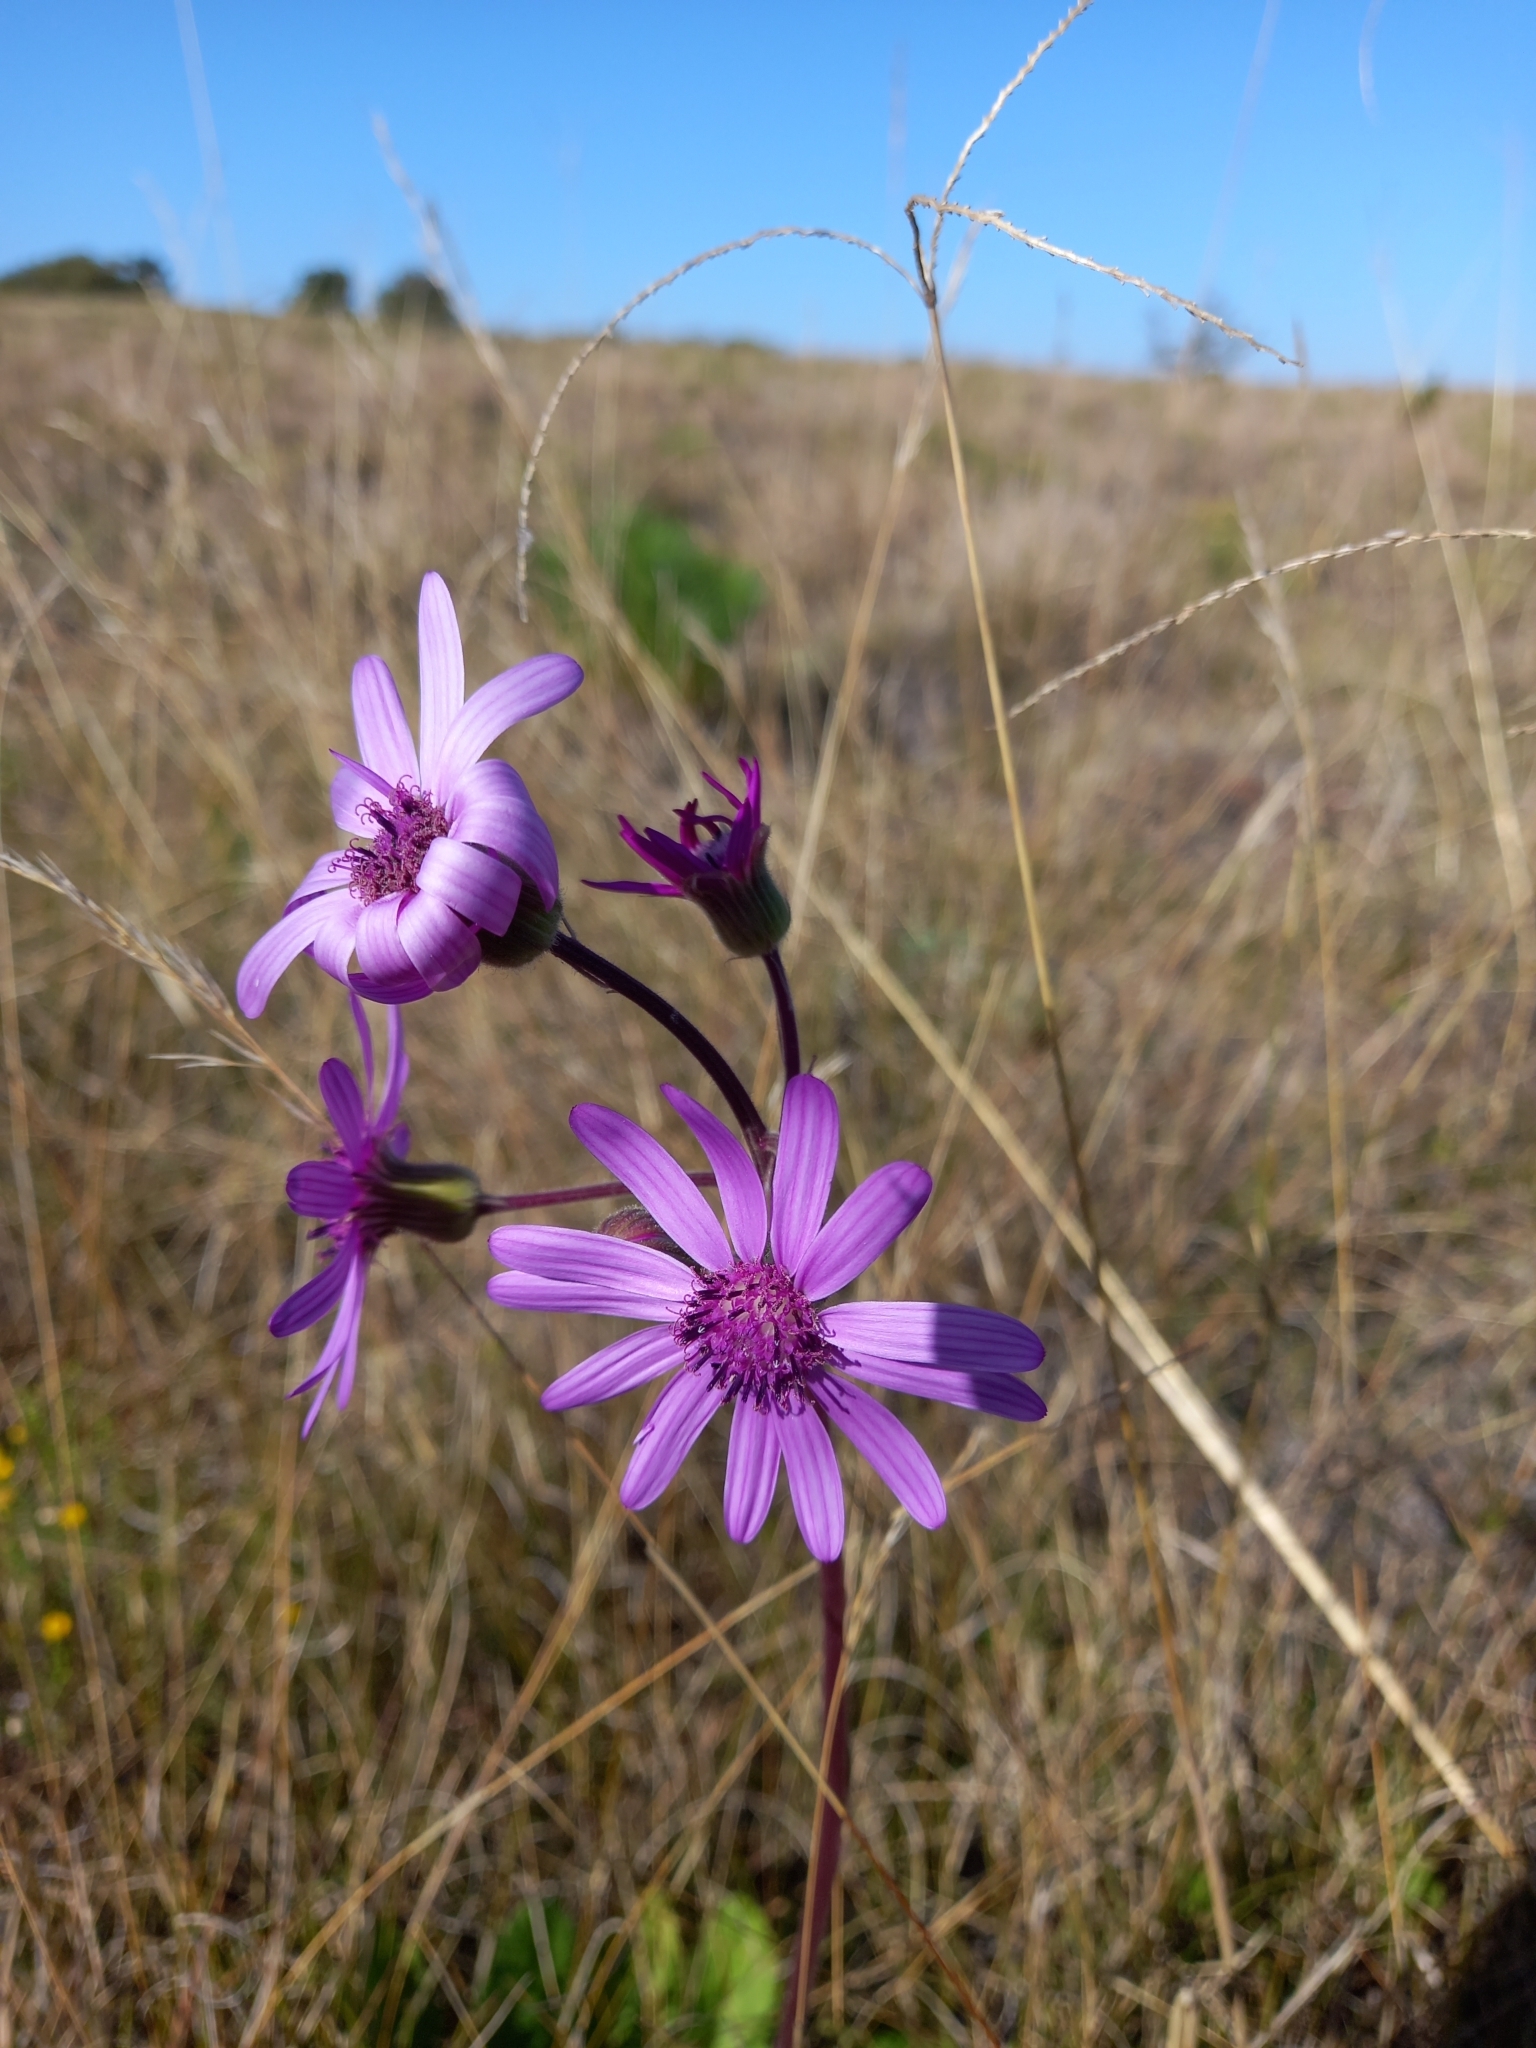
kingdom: Plantae
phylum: Tracheophyta
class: Magnoliopsida
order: Asterales
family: Asteraceae
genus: Senecio
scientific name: Senecio speciosus
